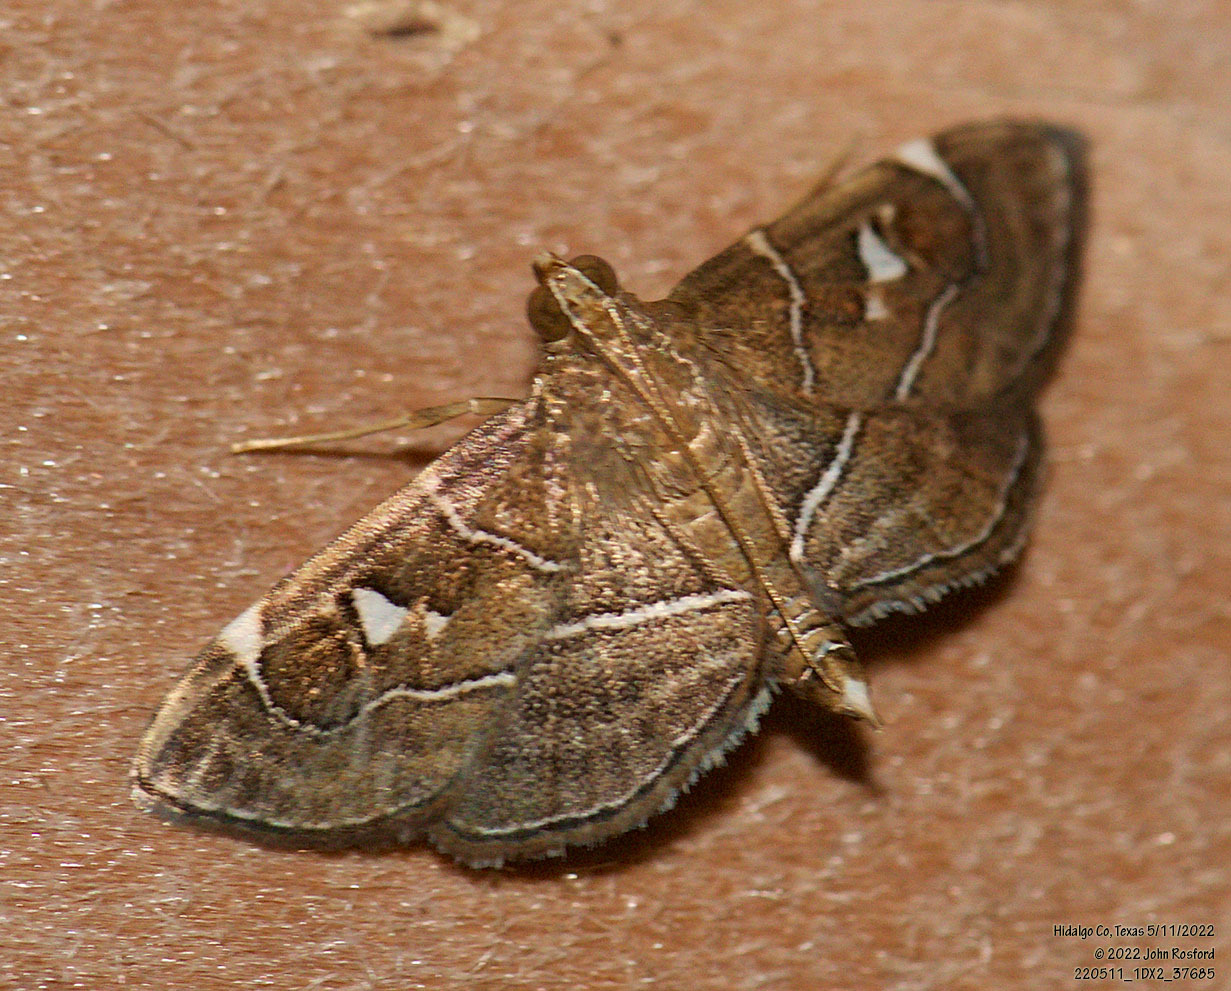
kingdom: Animalia
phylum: Arthropoda
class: Insecta
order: Lepidoptera
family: Crambidae
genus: Lamprosema
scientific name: Lamprosema victoriae
